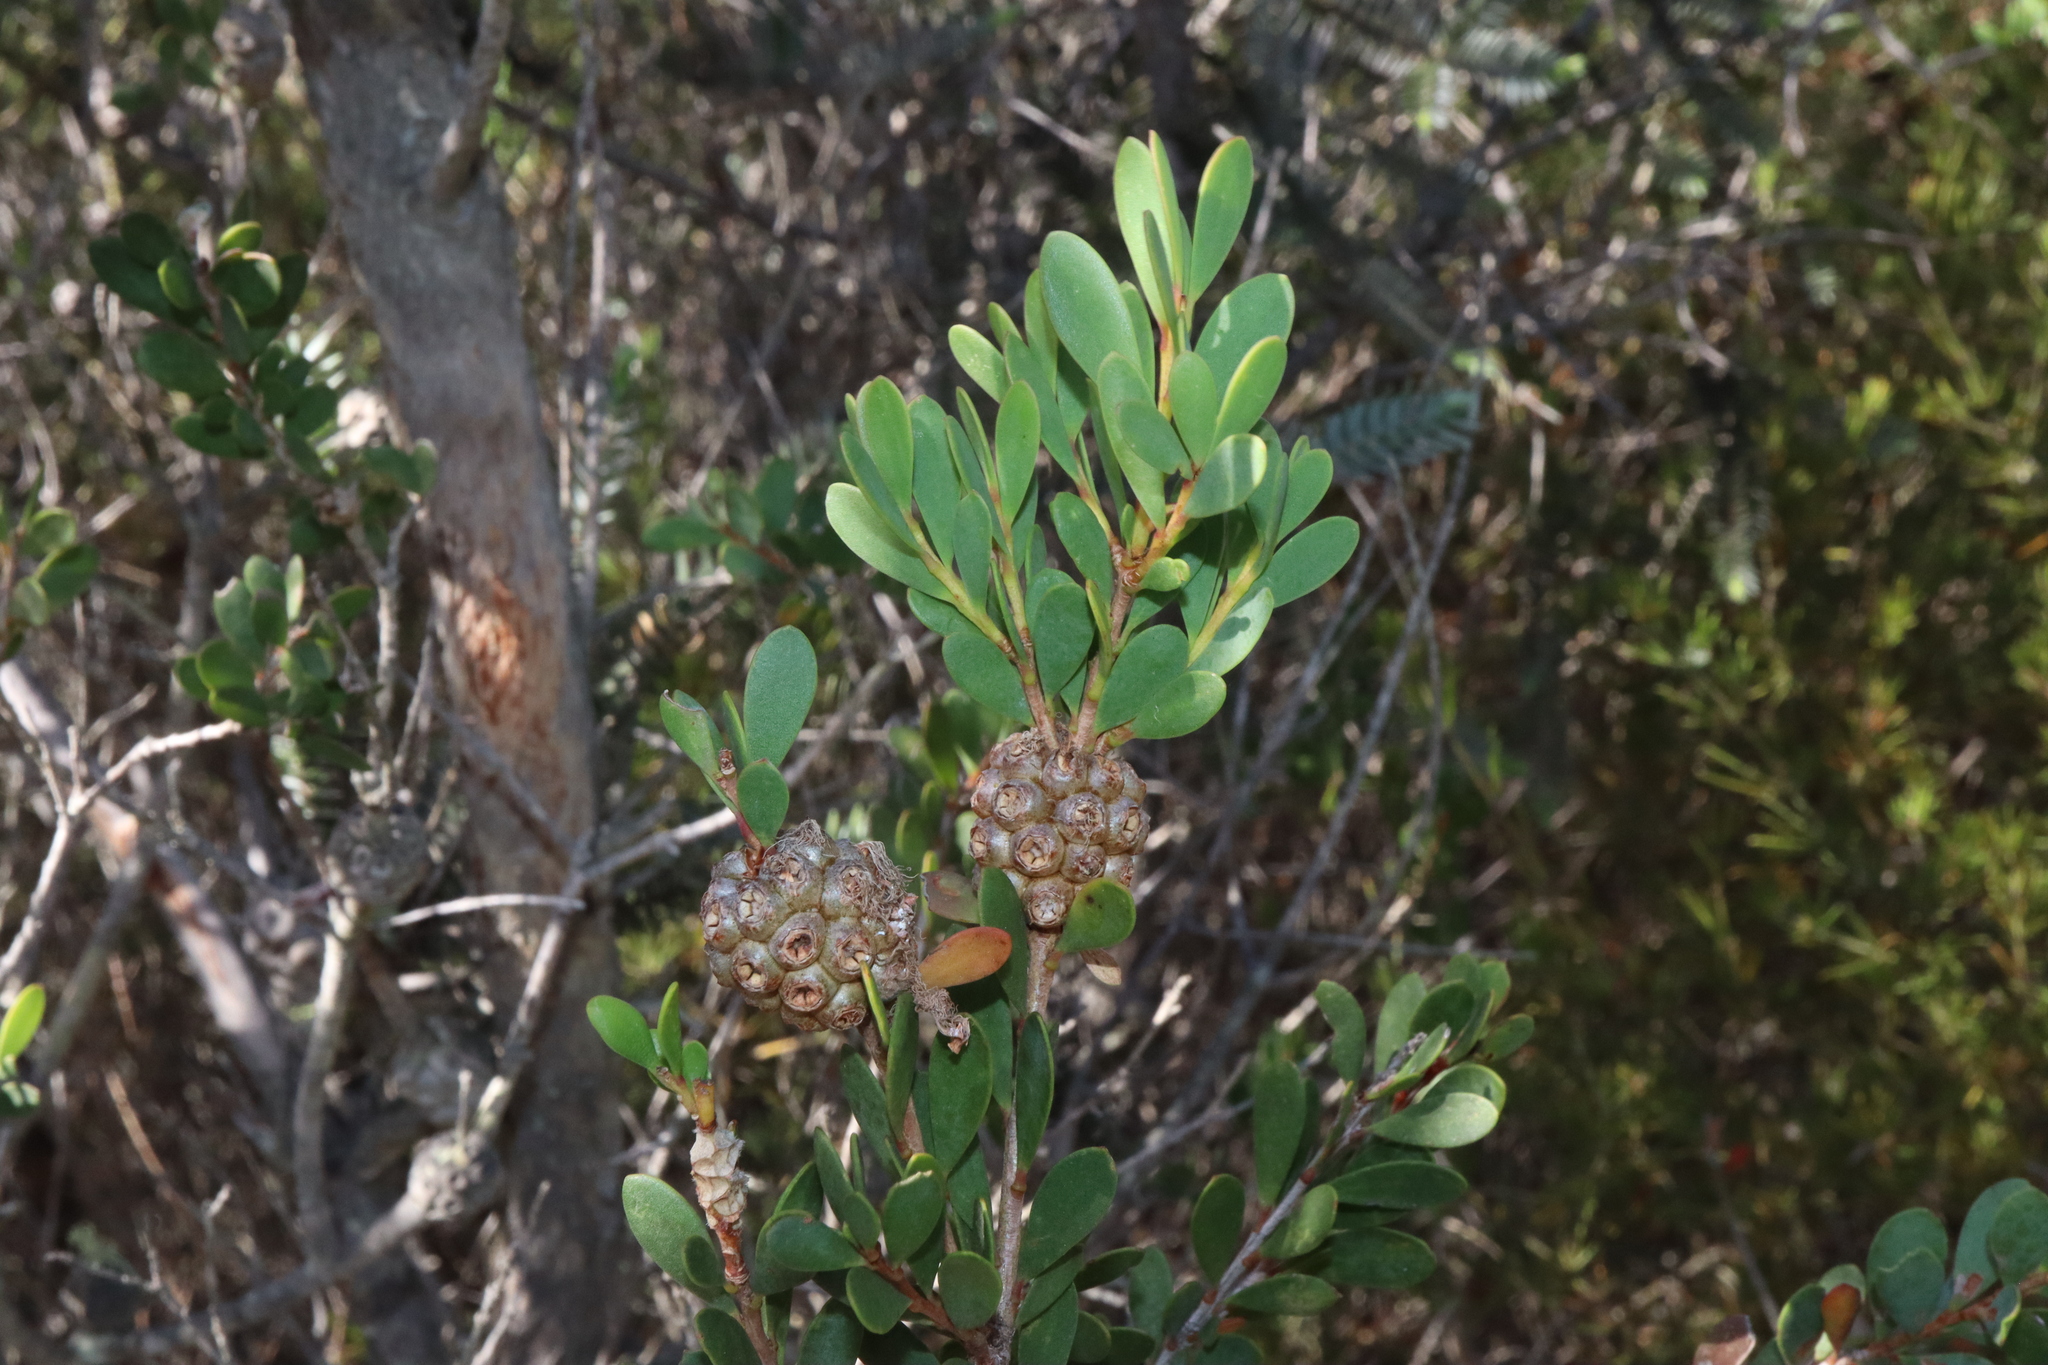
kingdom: Plantae
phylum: Tracheophyta
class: Magnoliopsida
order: Myrtales
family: Myrtaceae
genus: Melaleuca
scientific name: Melaleuca nesophila
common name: Mauve honey myrtle
